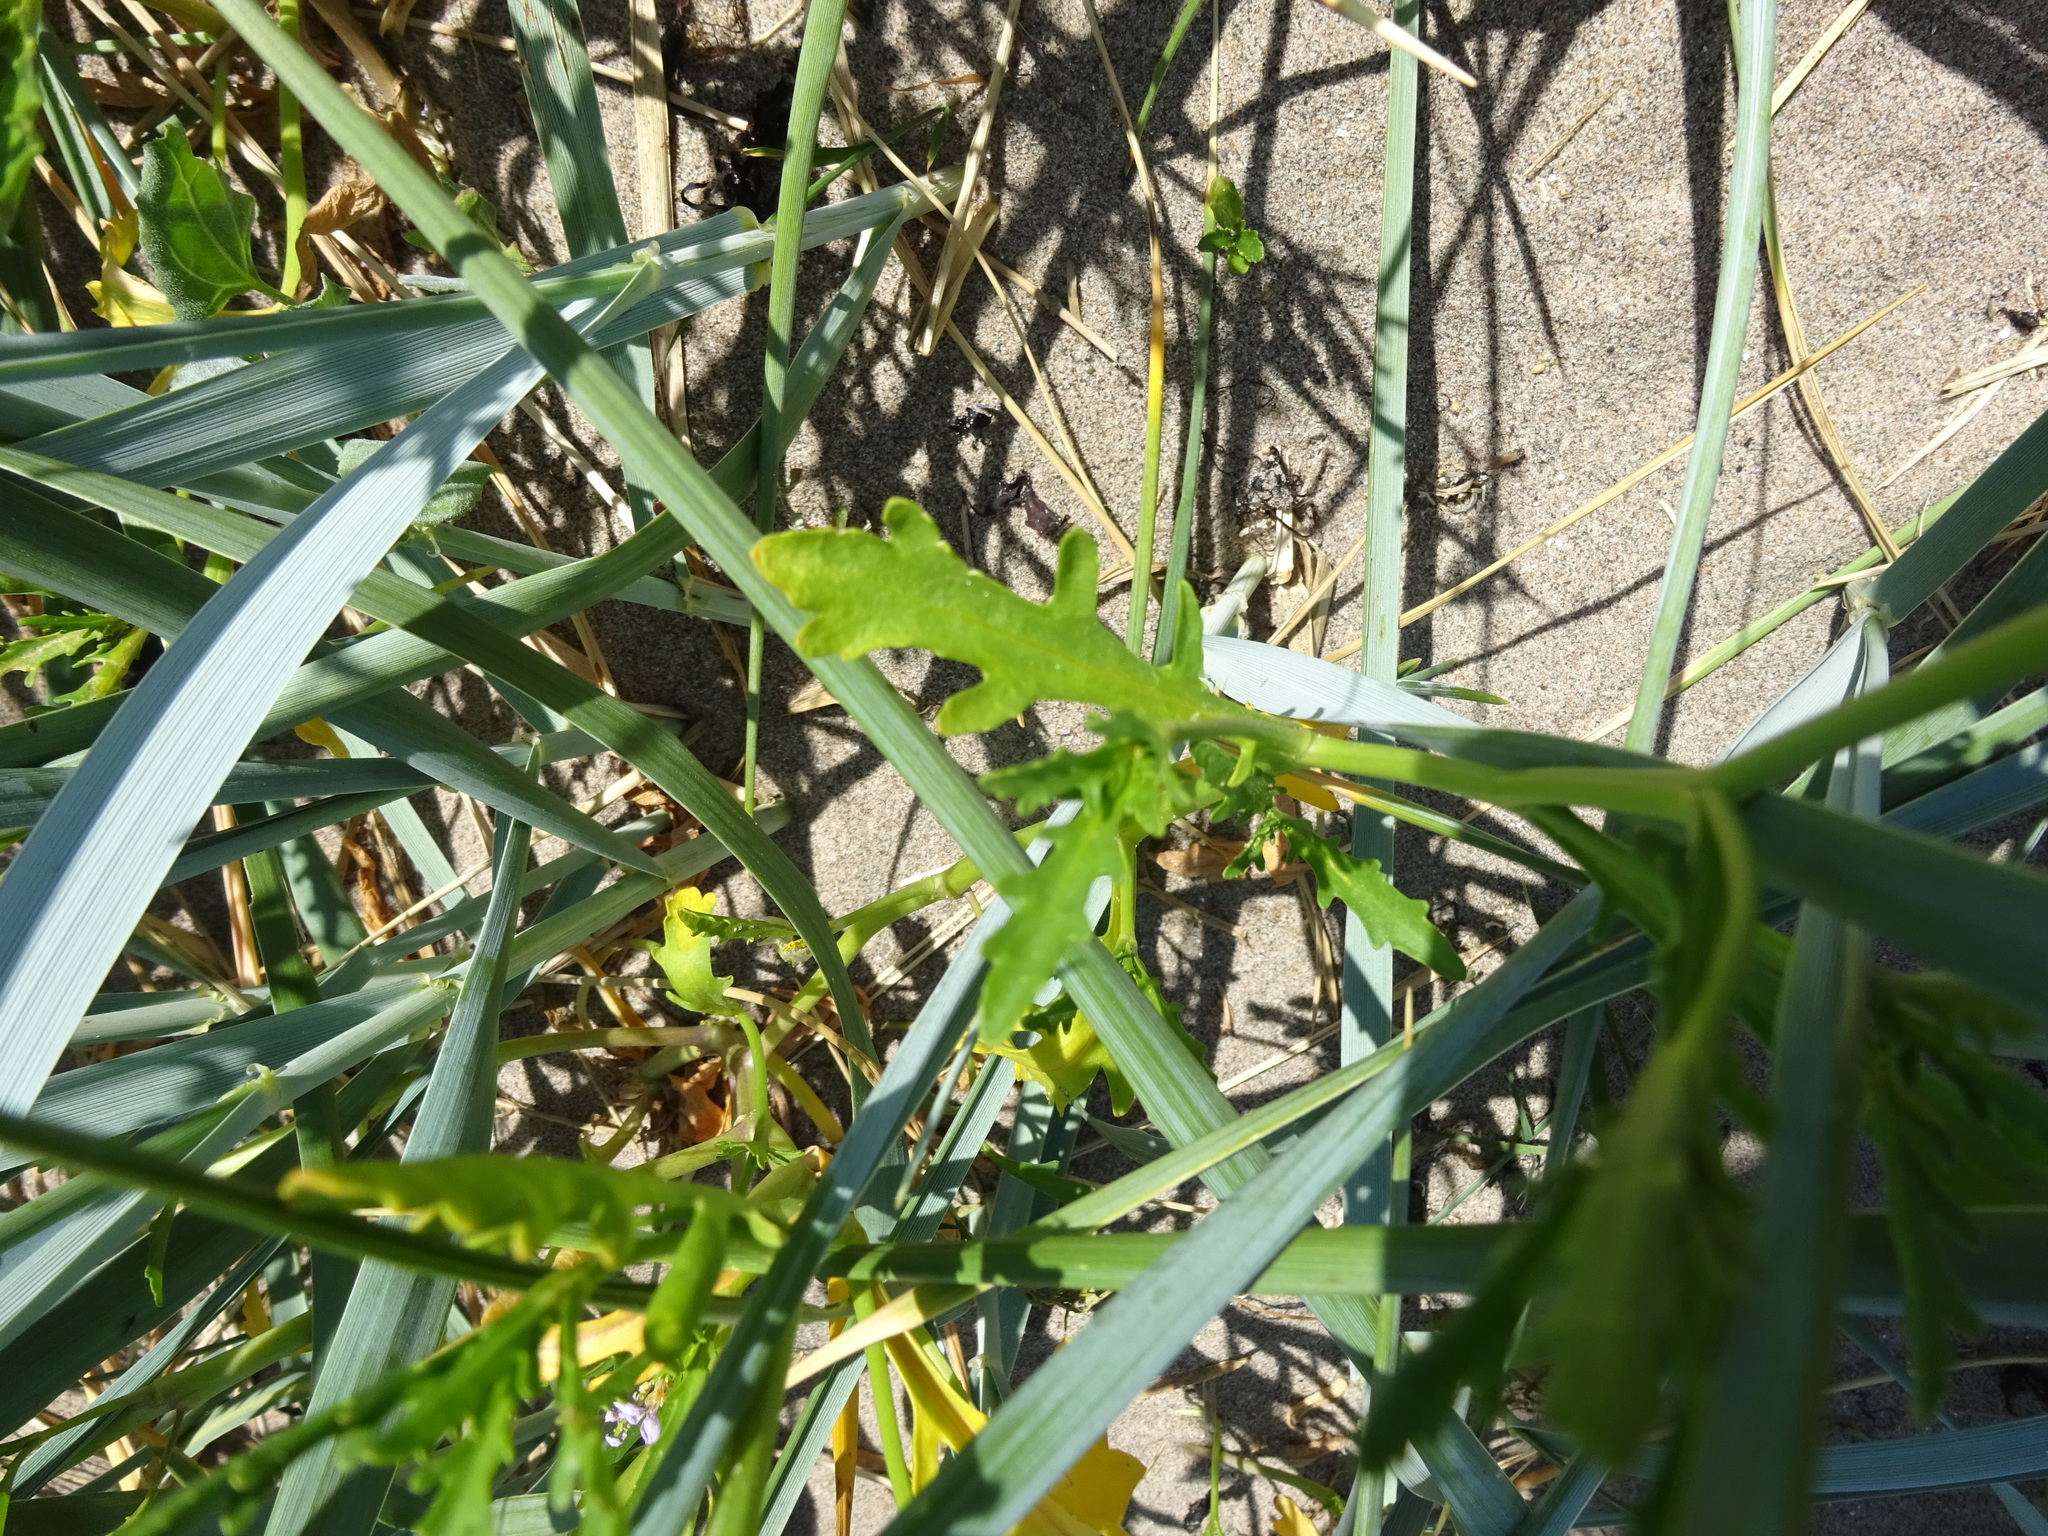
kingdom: Plantae
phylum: Tracheophyta
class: Magnoliopsida
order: Brassicales
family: Brassicaceae
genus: Cakile
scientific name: Cakile maritima
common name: Sea rocket
